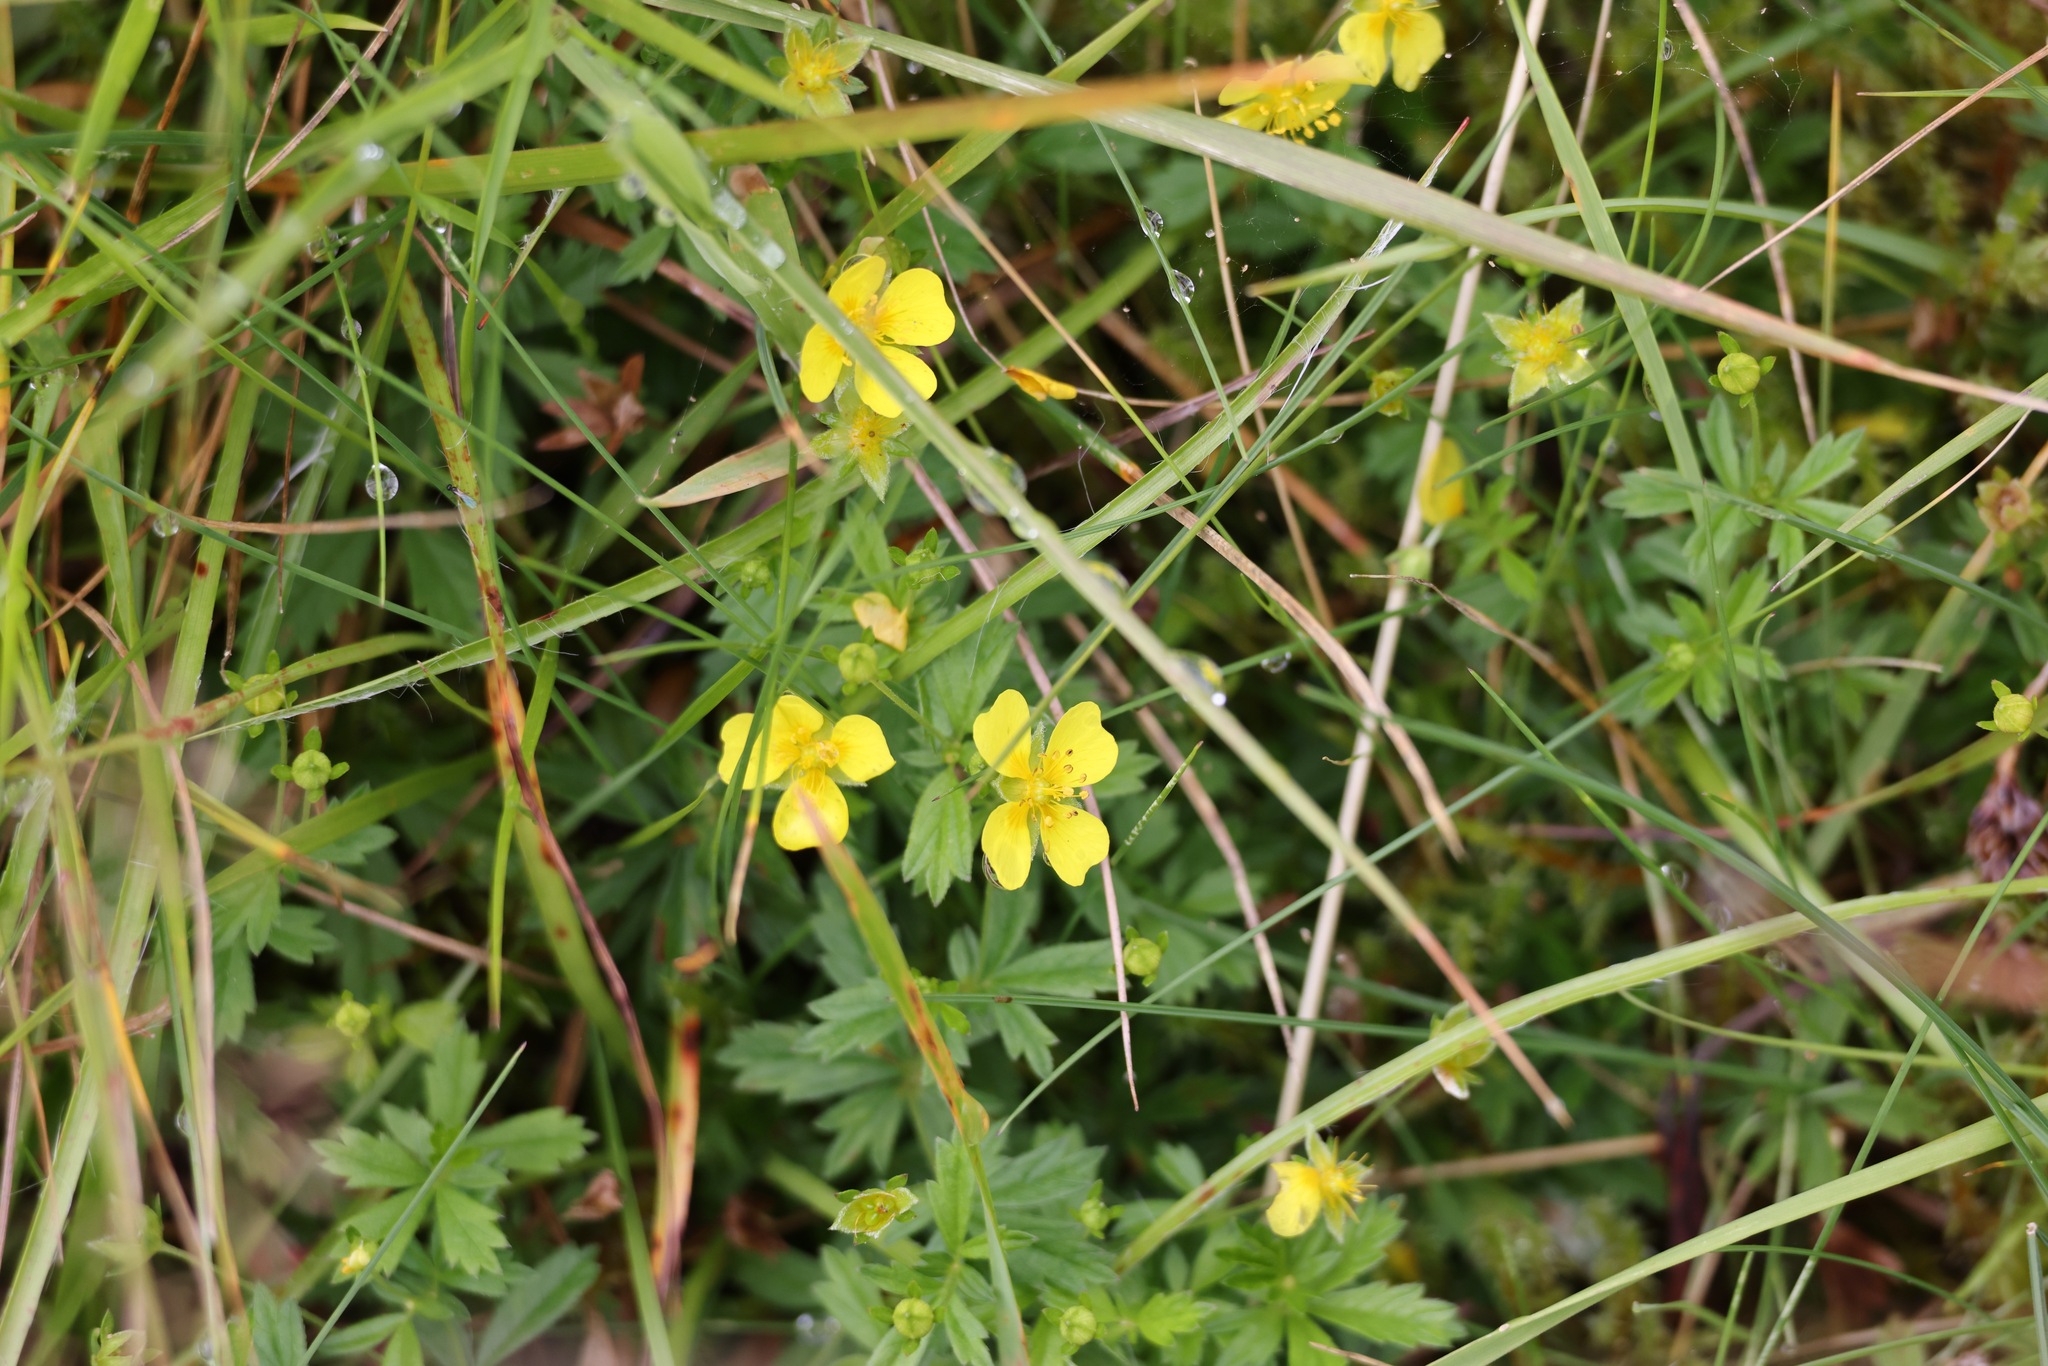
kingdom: Plantae
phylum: Tracheophyta
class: Magnoliopsida
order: Rosales
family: Rosaceae
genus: Potentilla
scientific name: Potentilla erecta
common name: Tormentil
